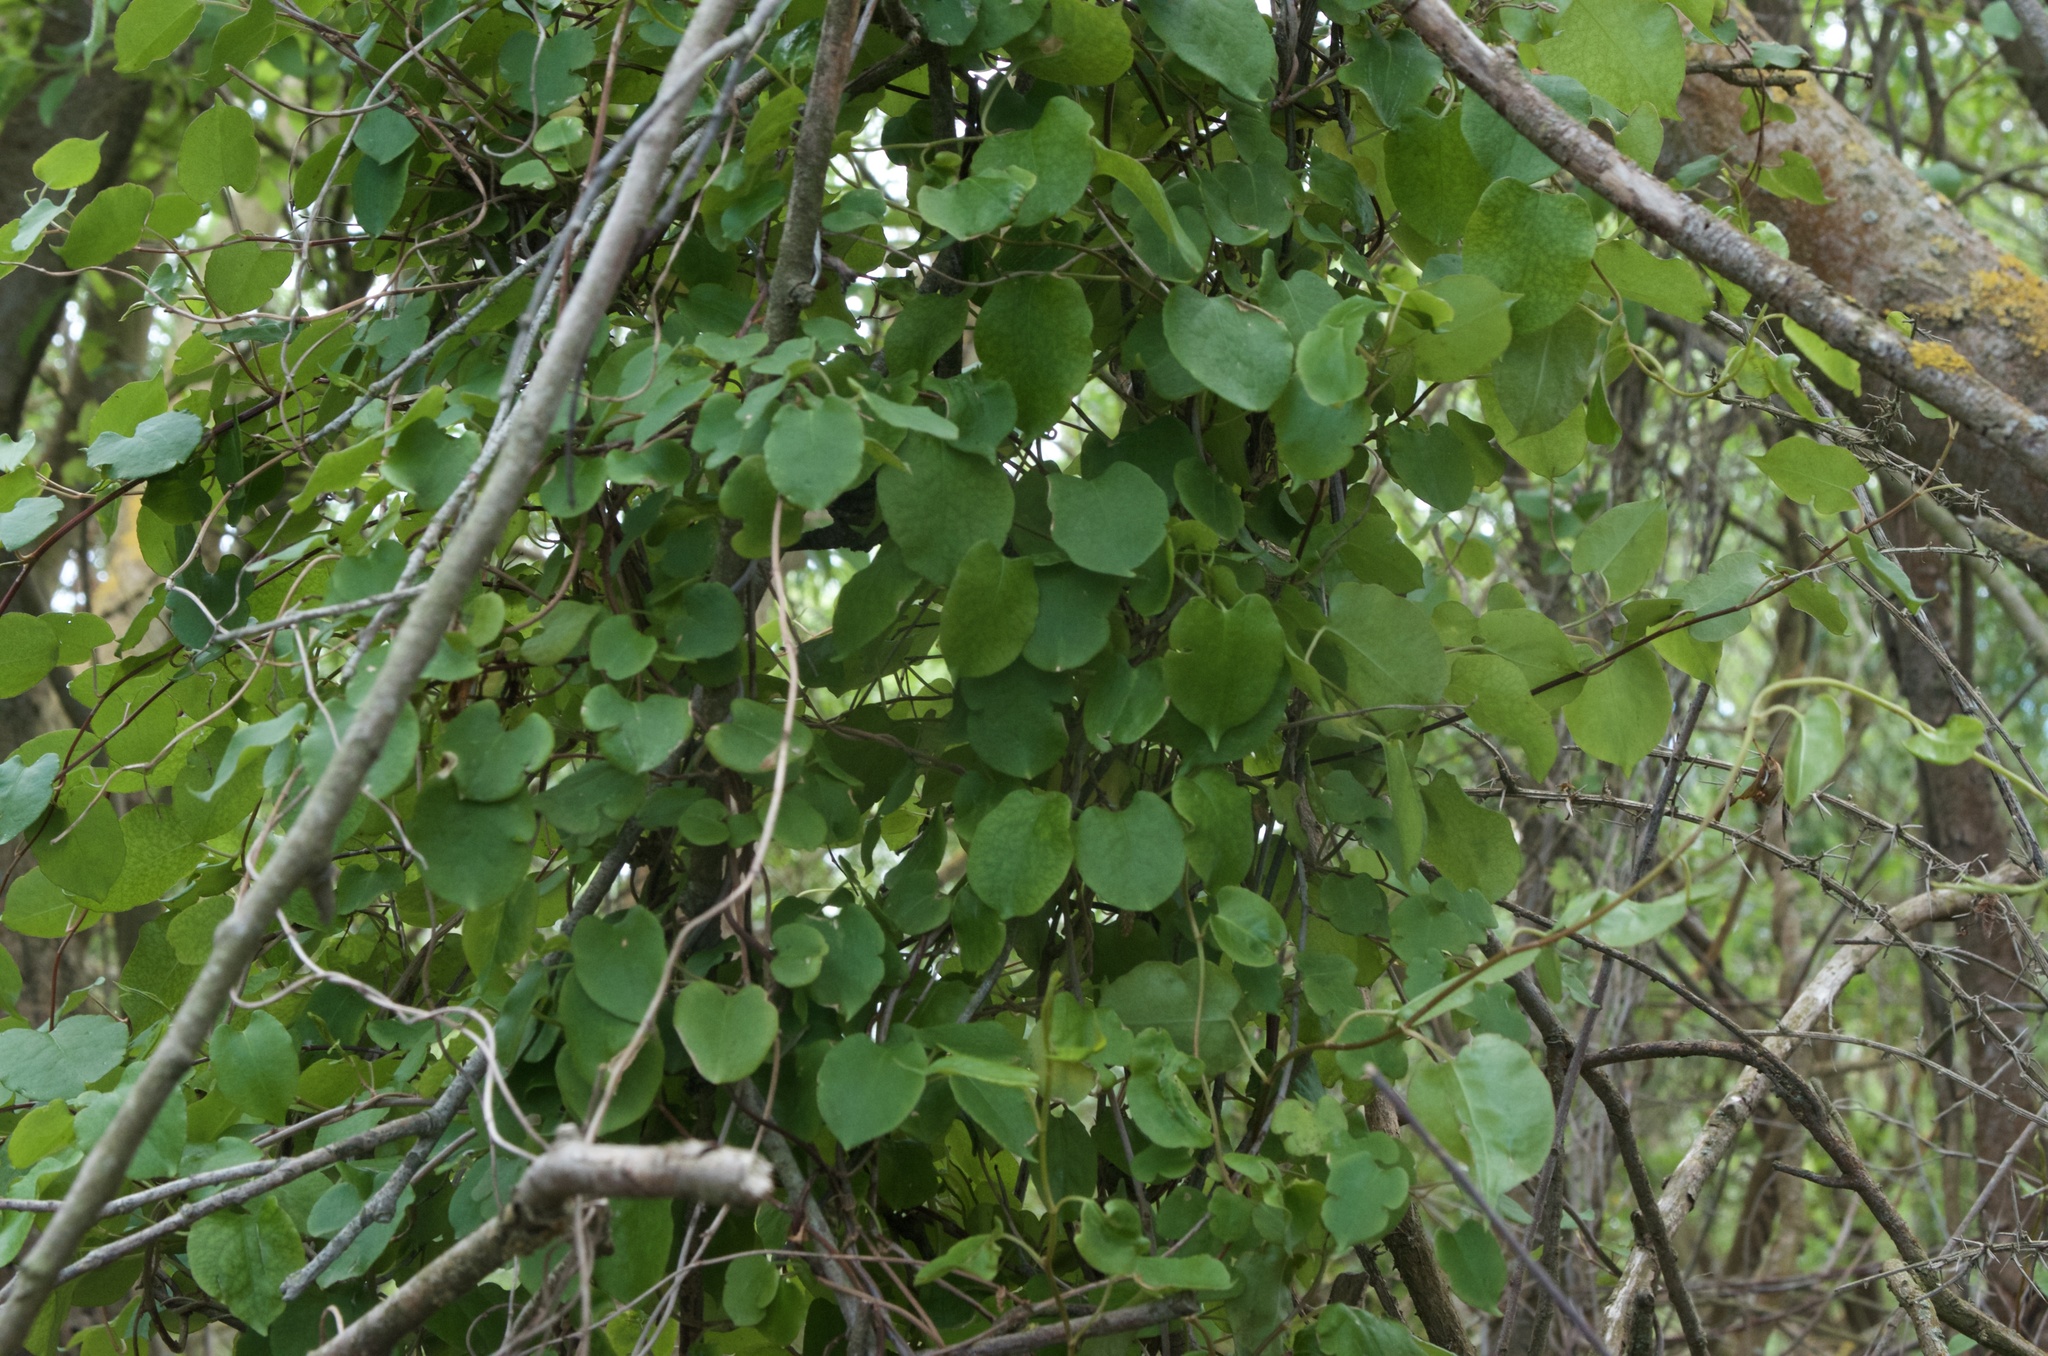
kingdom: Plantae
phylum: Tracheophyta
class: Magnoliopsida
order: Caryophyllales
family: Polygonaceae
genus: Muehlenbeckia
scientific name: Muehlenbeckia australis
